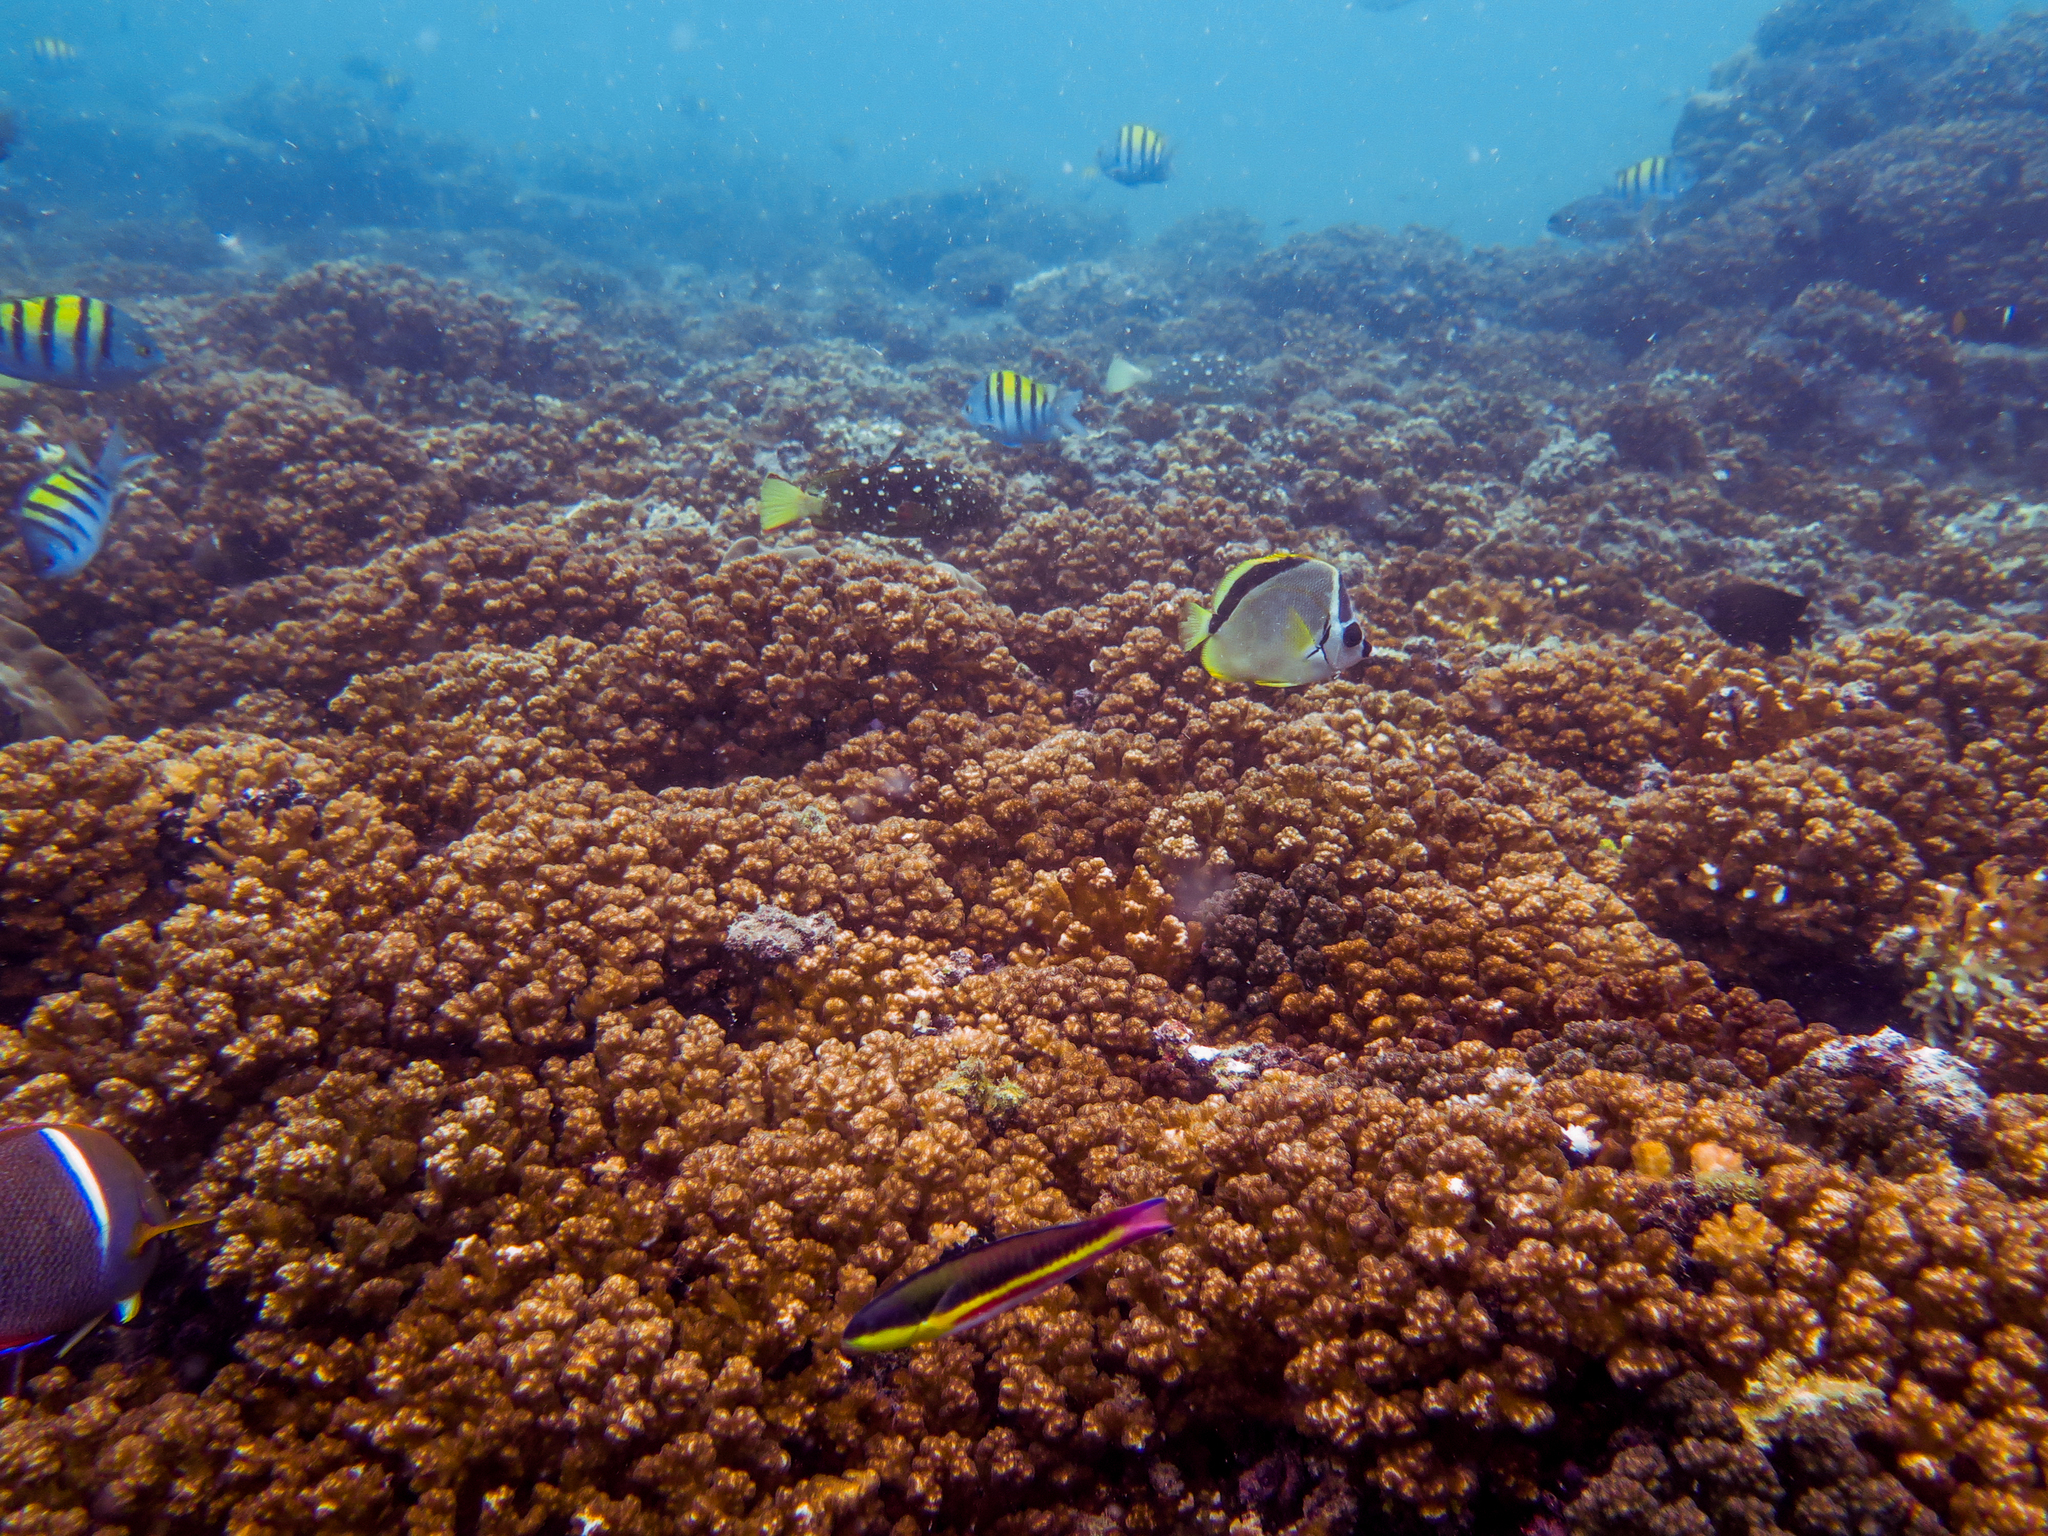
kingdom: Animalia
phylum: Chordata
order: Perciformes
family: Pomacanthidae
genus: Holacanthus
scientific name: Holacanthus passer
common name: King angelfish
